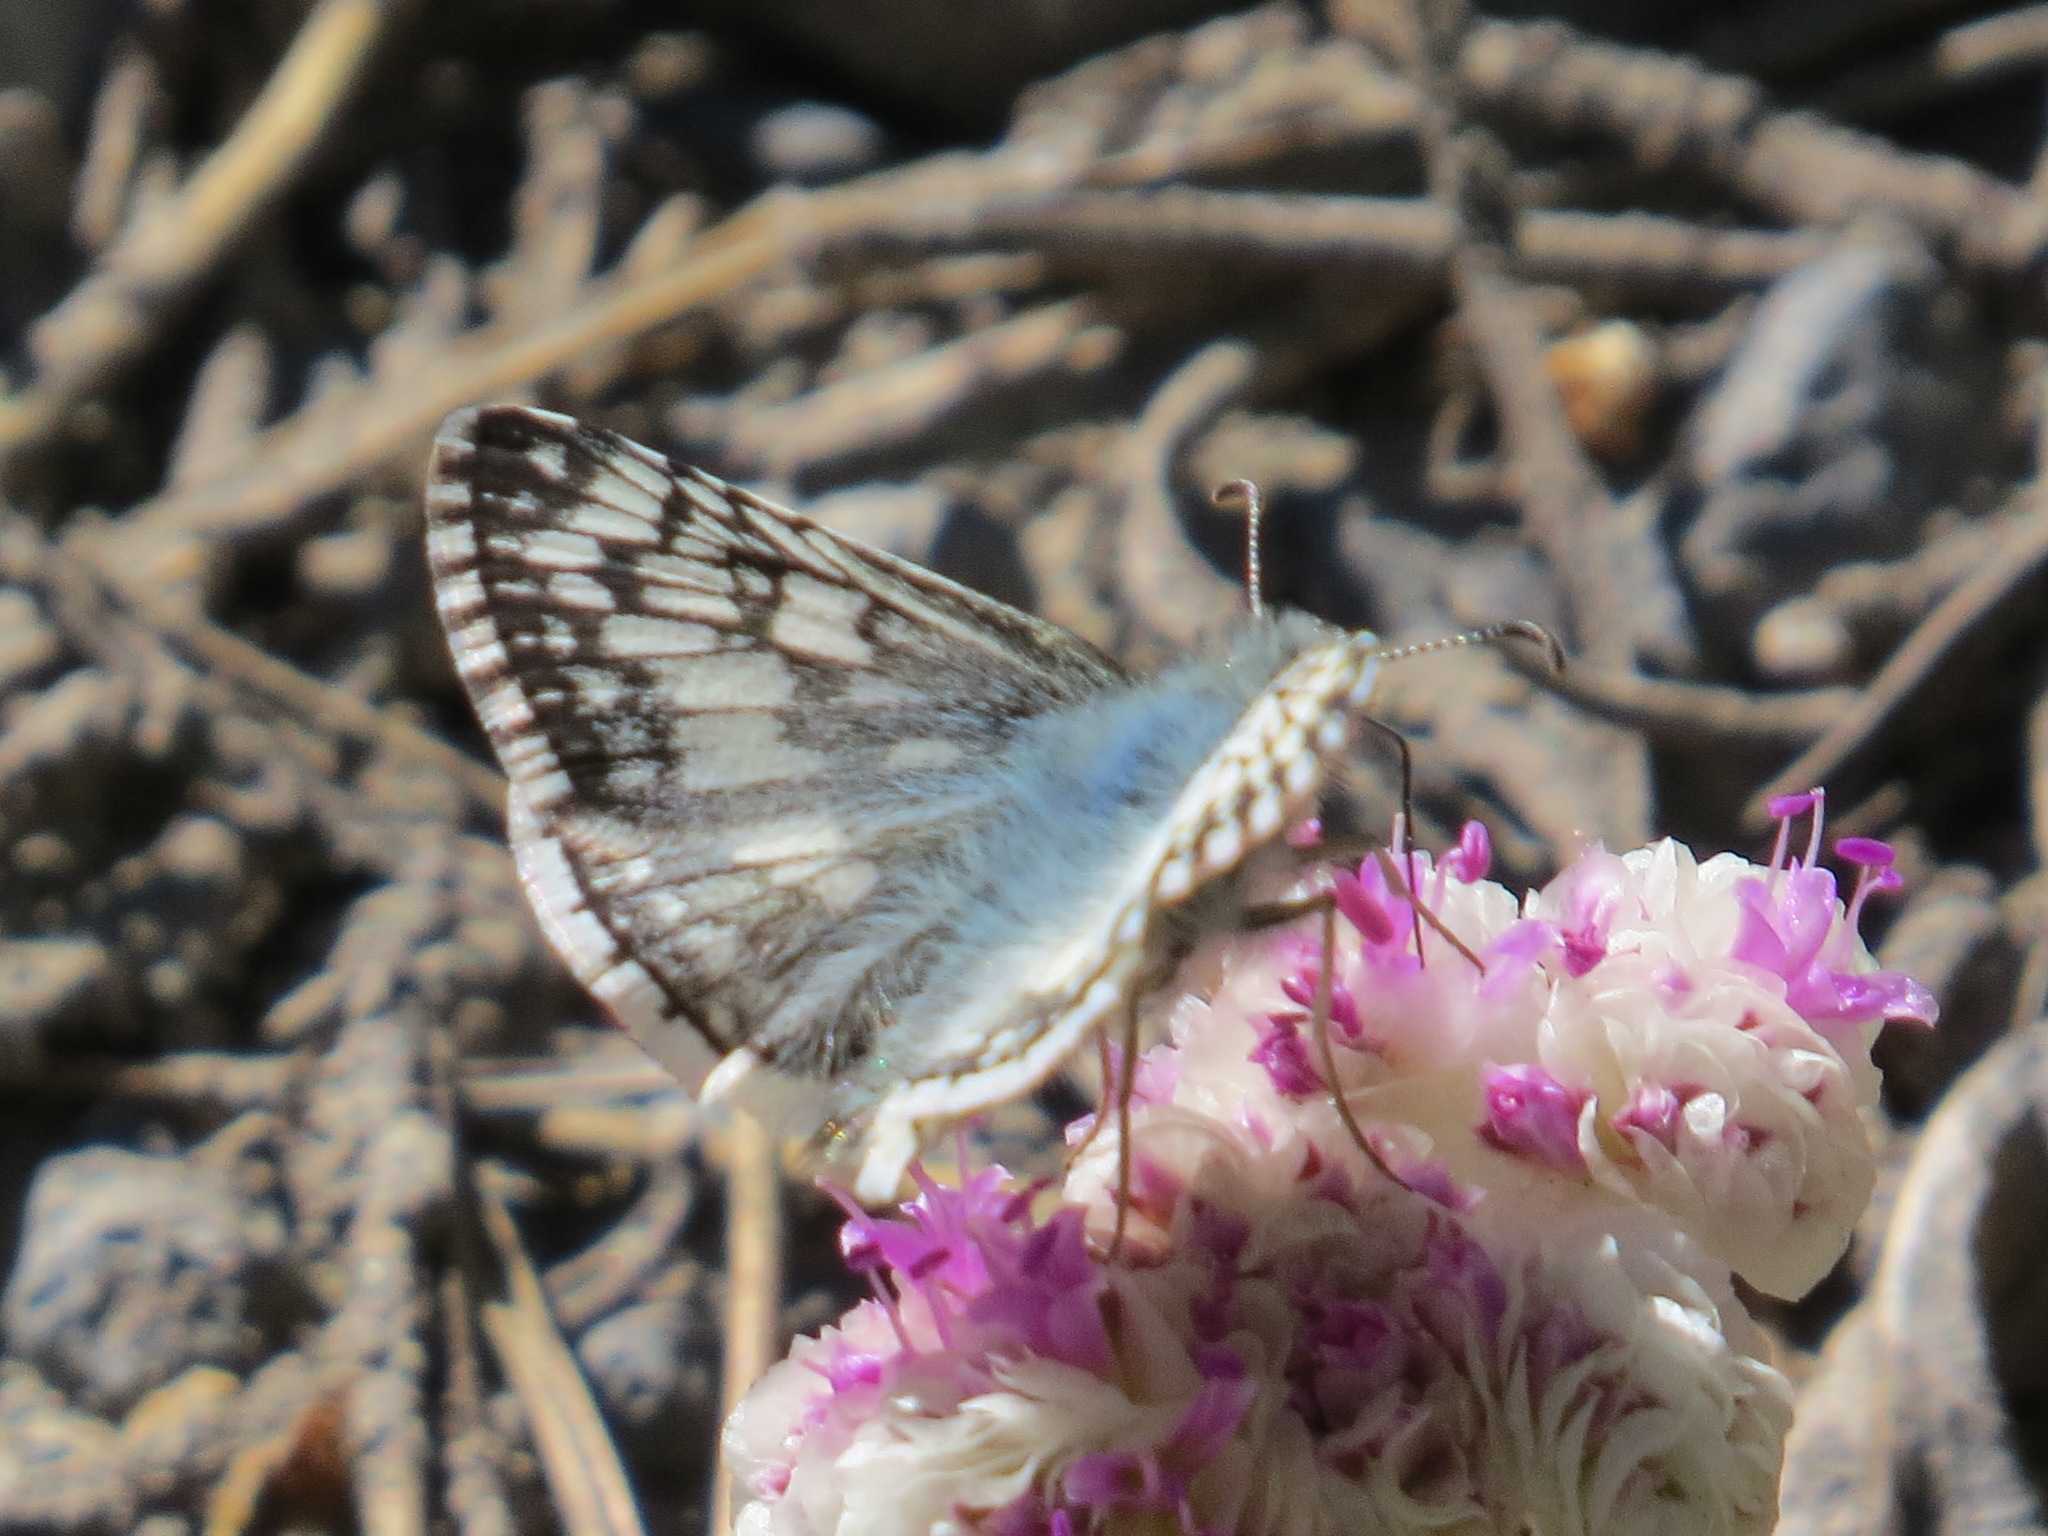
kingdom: Animalia
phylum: Arthropoda
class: Insecta
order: Lepidoptera
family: Hesperiidae
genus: Burnsius
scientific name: Burnsius communis
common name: Common checkered-skipper
